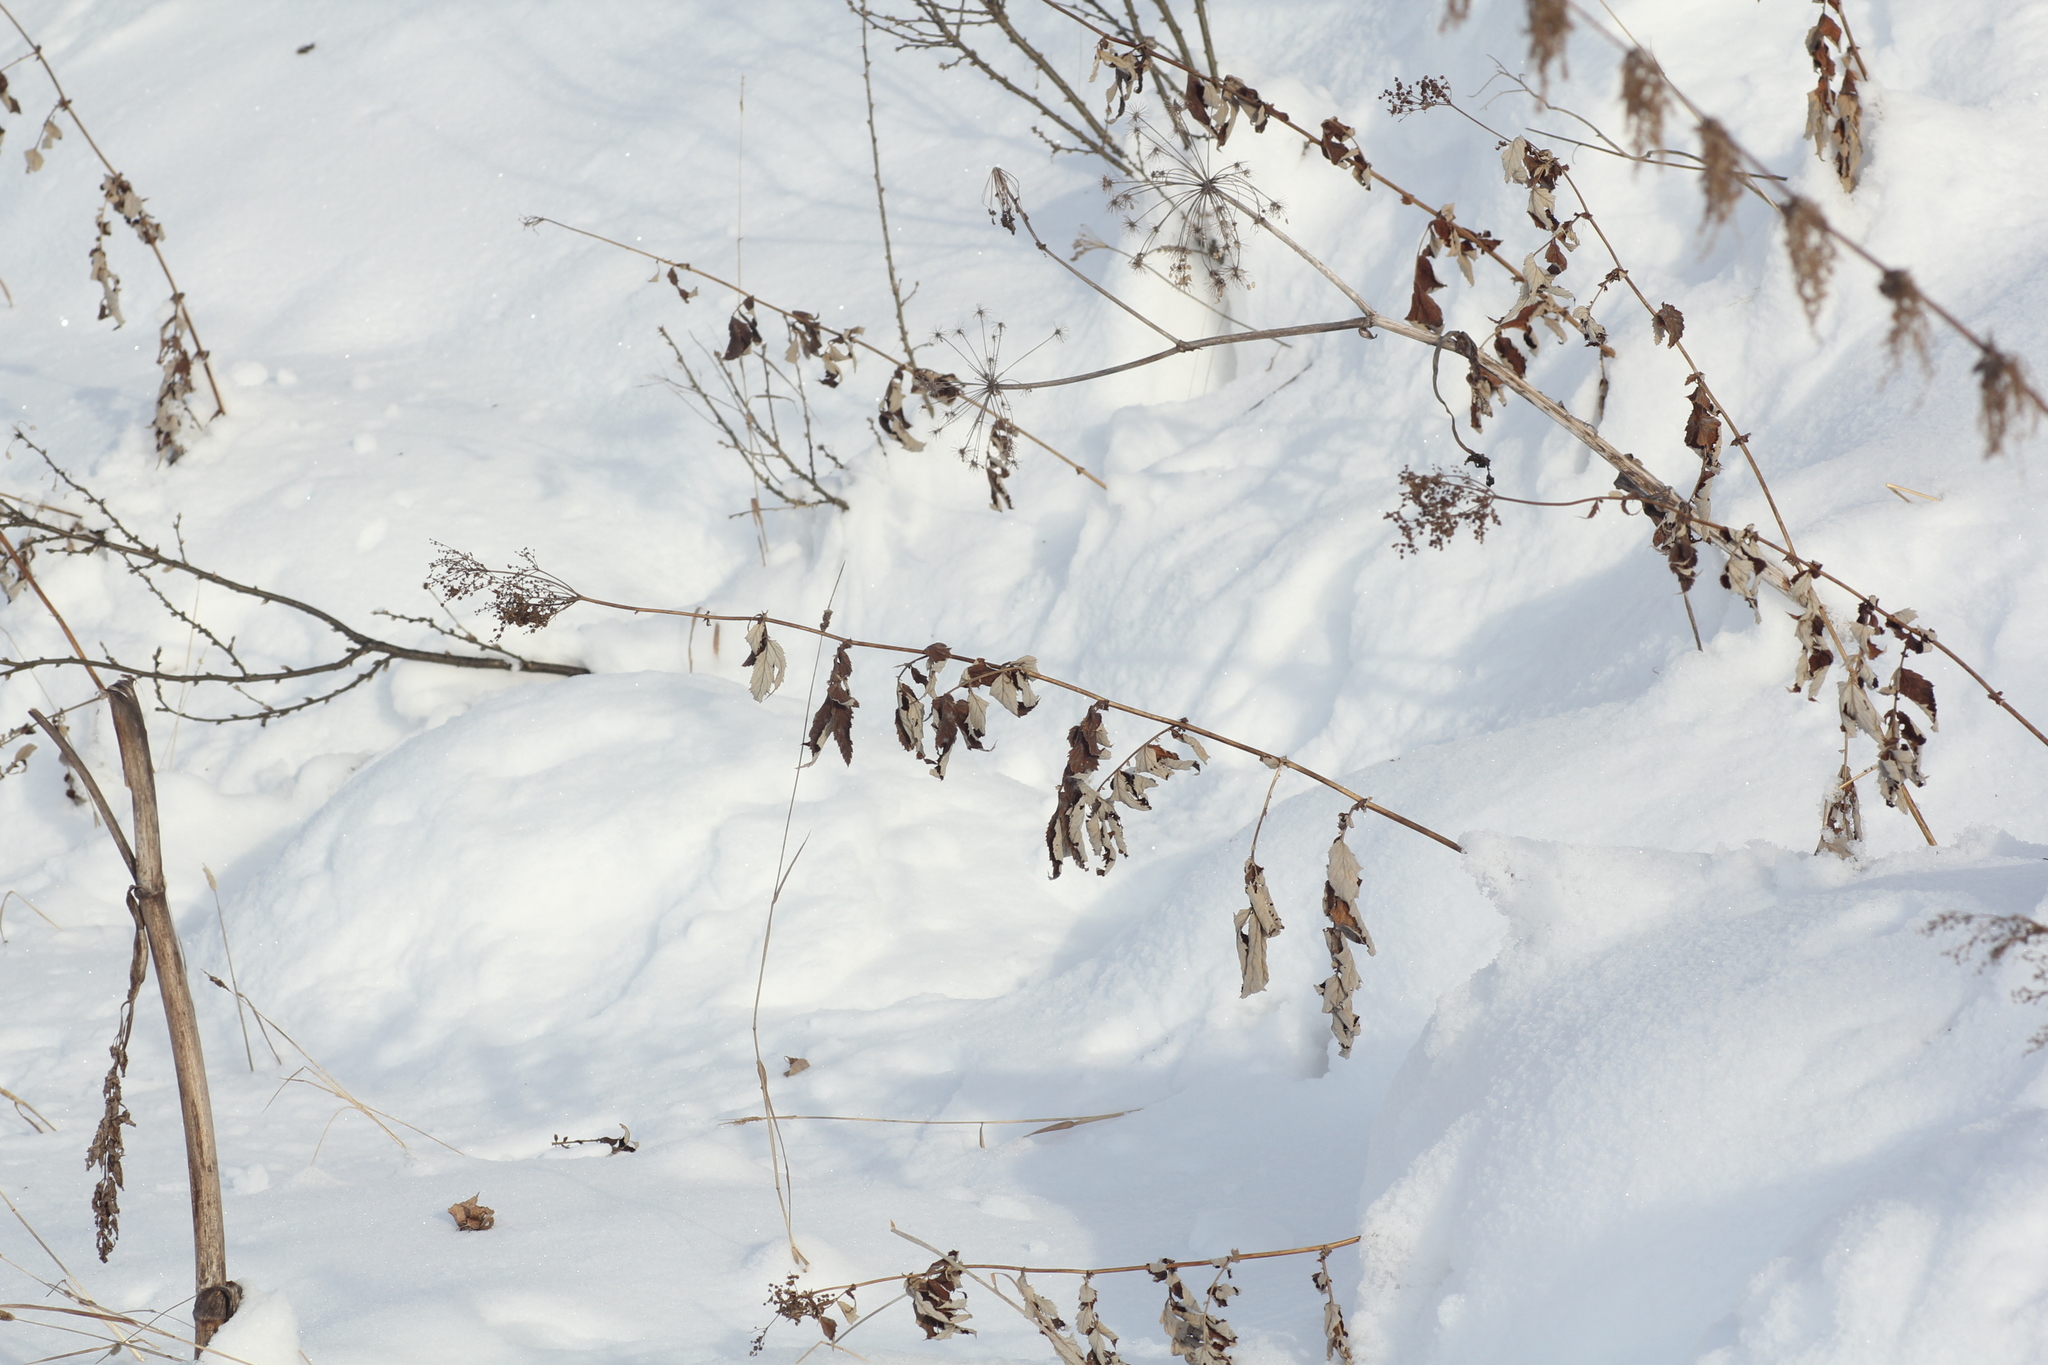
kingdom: Plantae
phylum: Tracheophyta
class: Magnoliopsida
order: Rosales
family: Rosaceae
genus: Filipendula
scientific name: Filipendula ulmaria
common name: Meadowsweet
